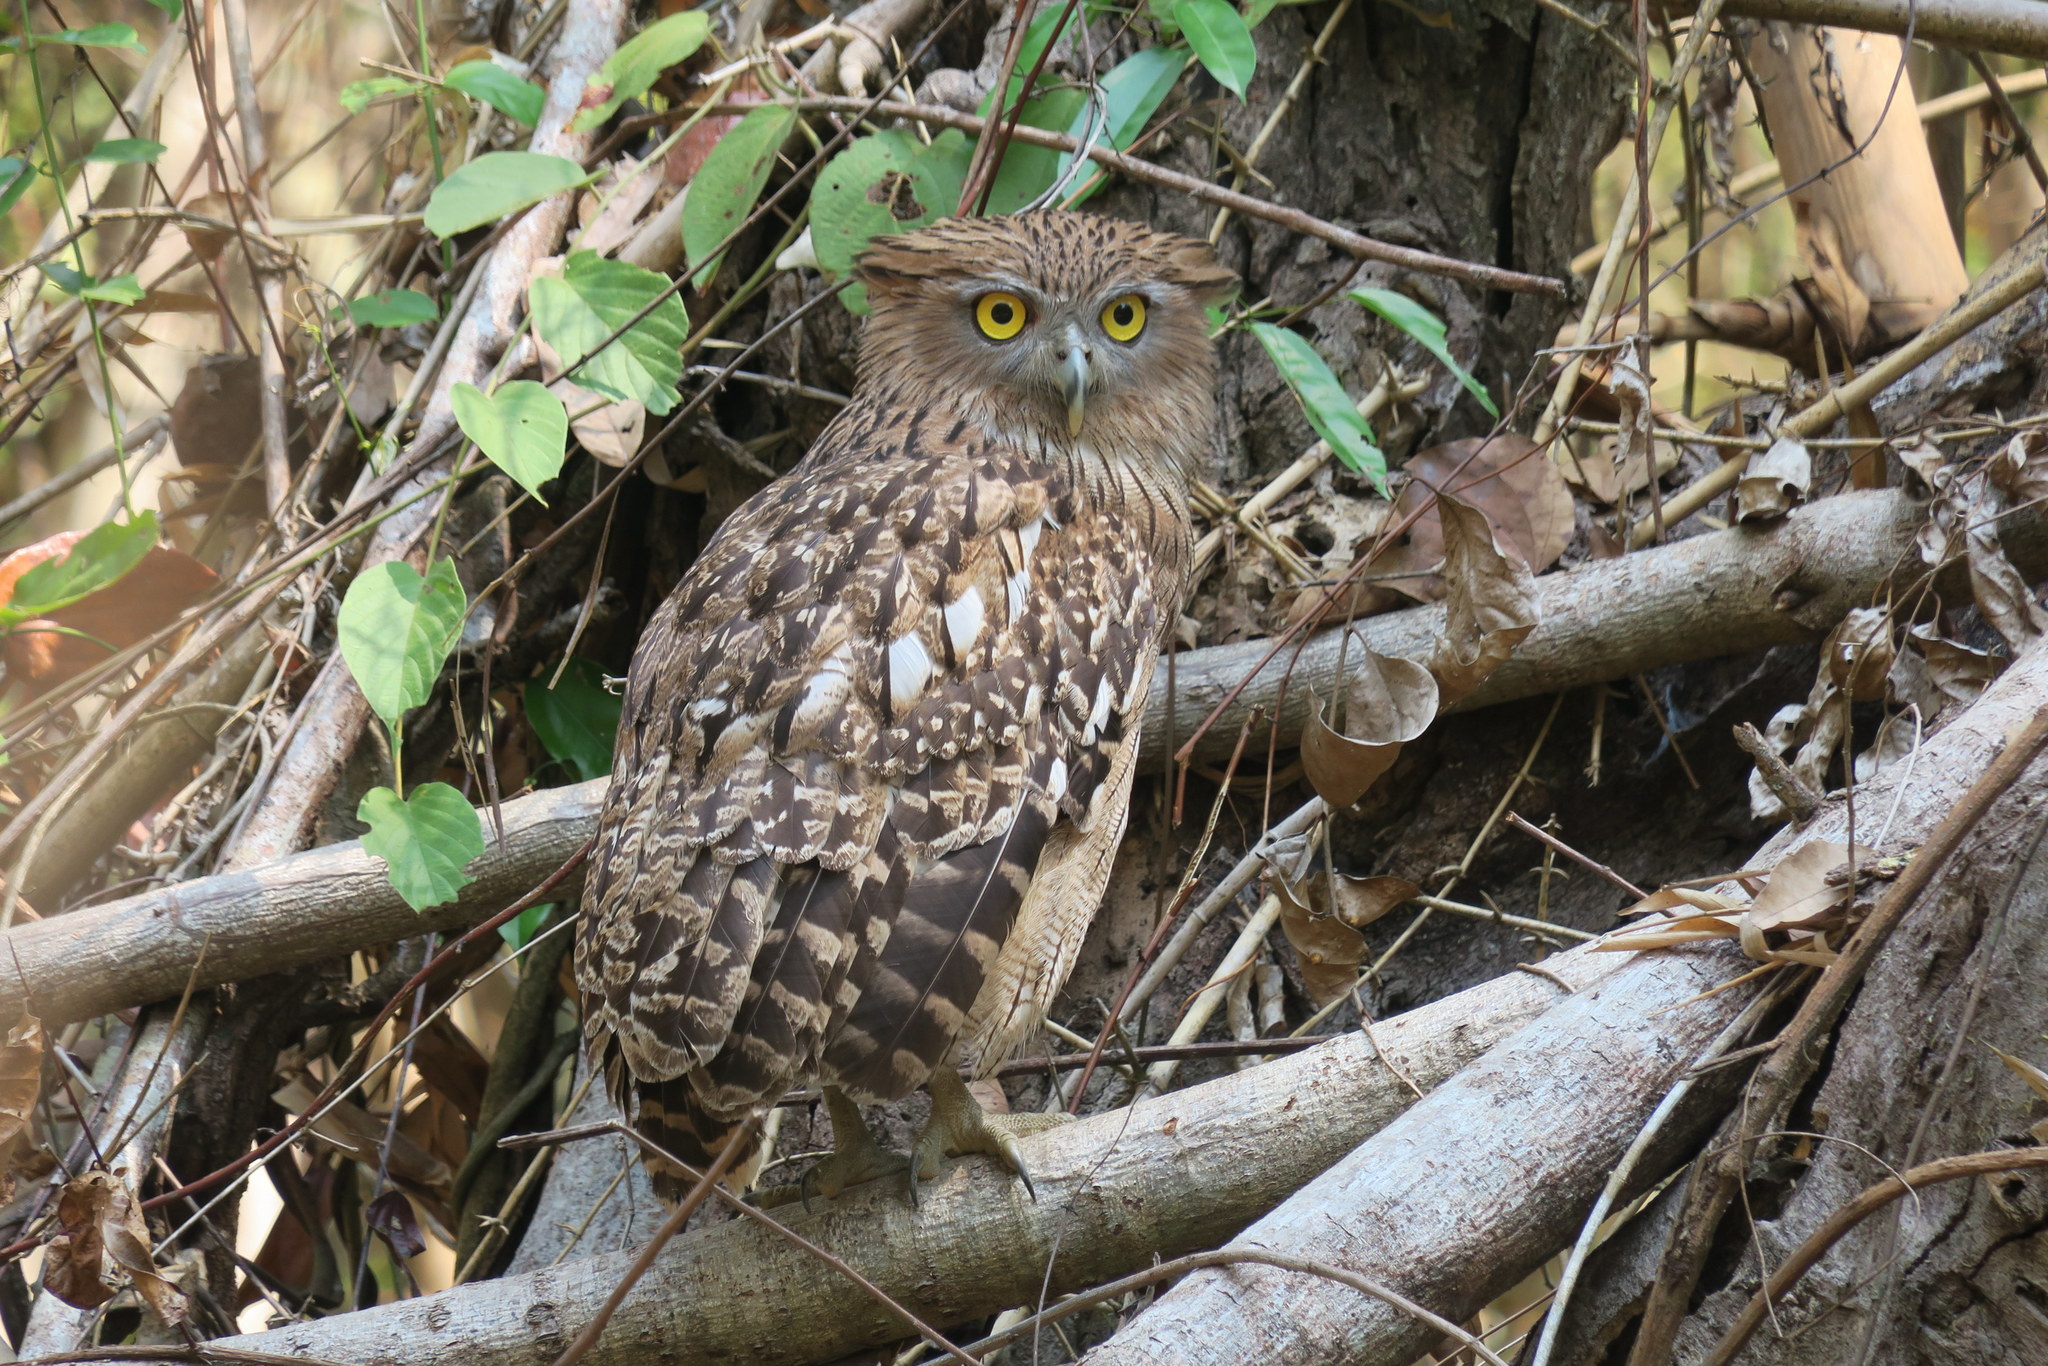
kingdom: Animalia
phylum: Chordata
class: Aves
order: Strigiformes
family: Strigidae
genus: Ketupa
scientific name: Ketupa zeylonensis
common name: Brown fish owl
